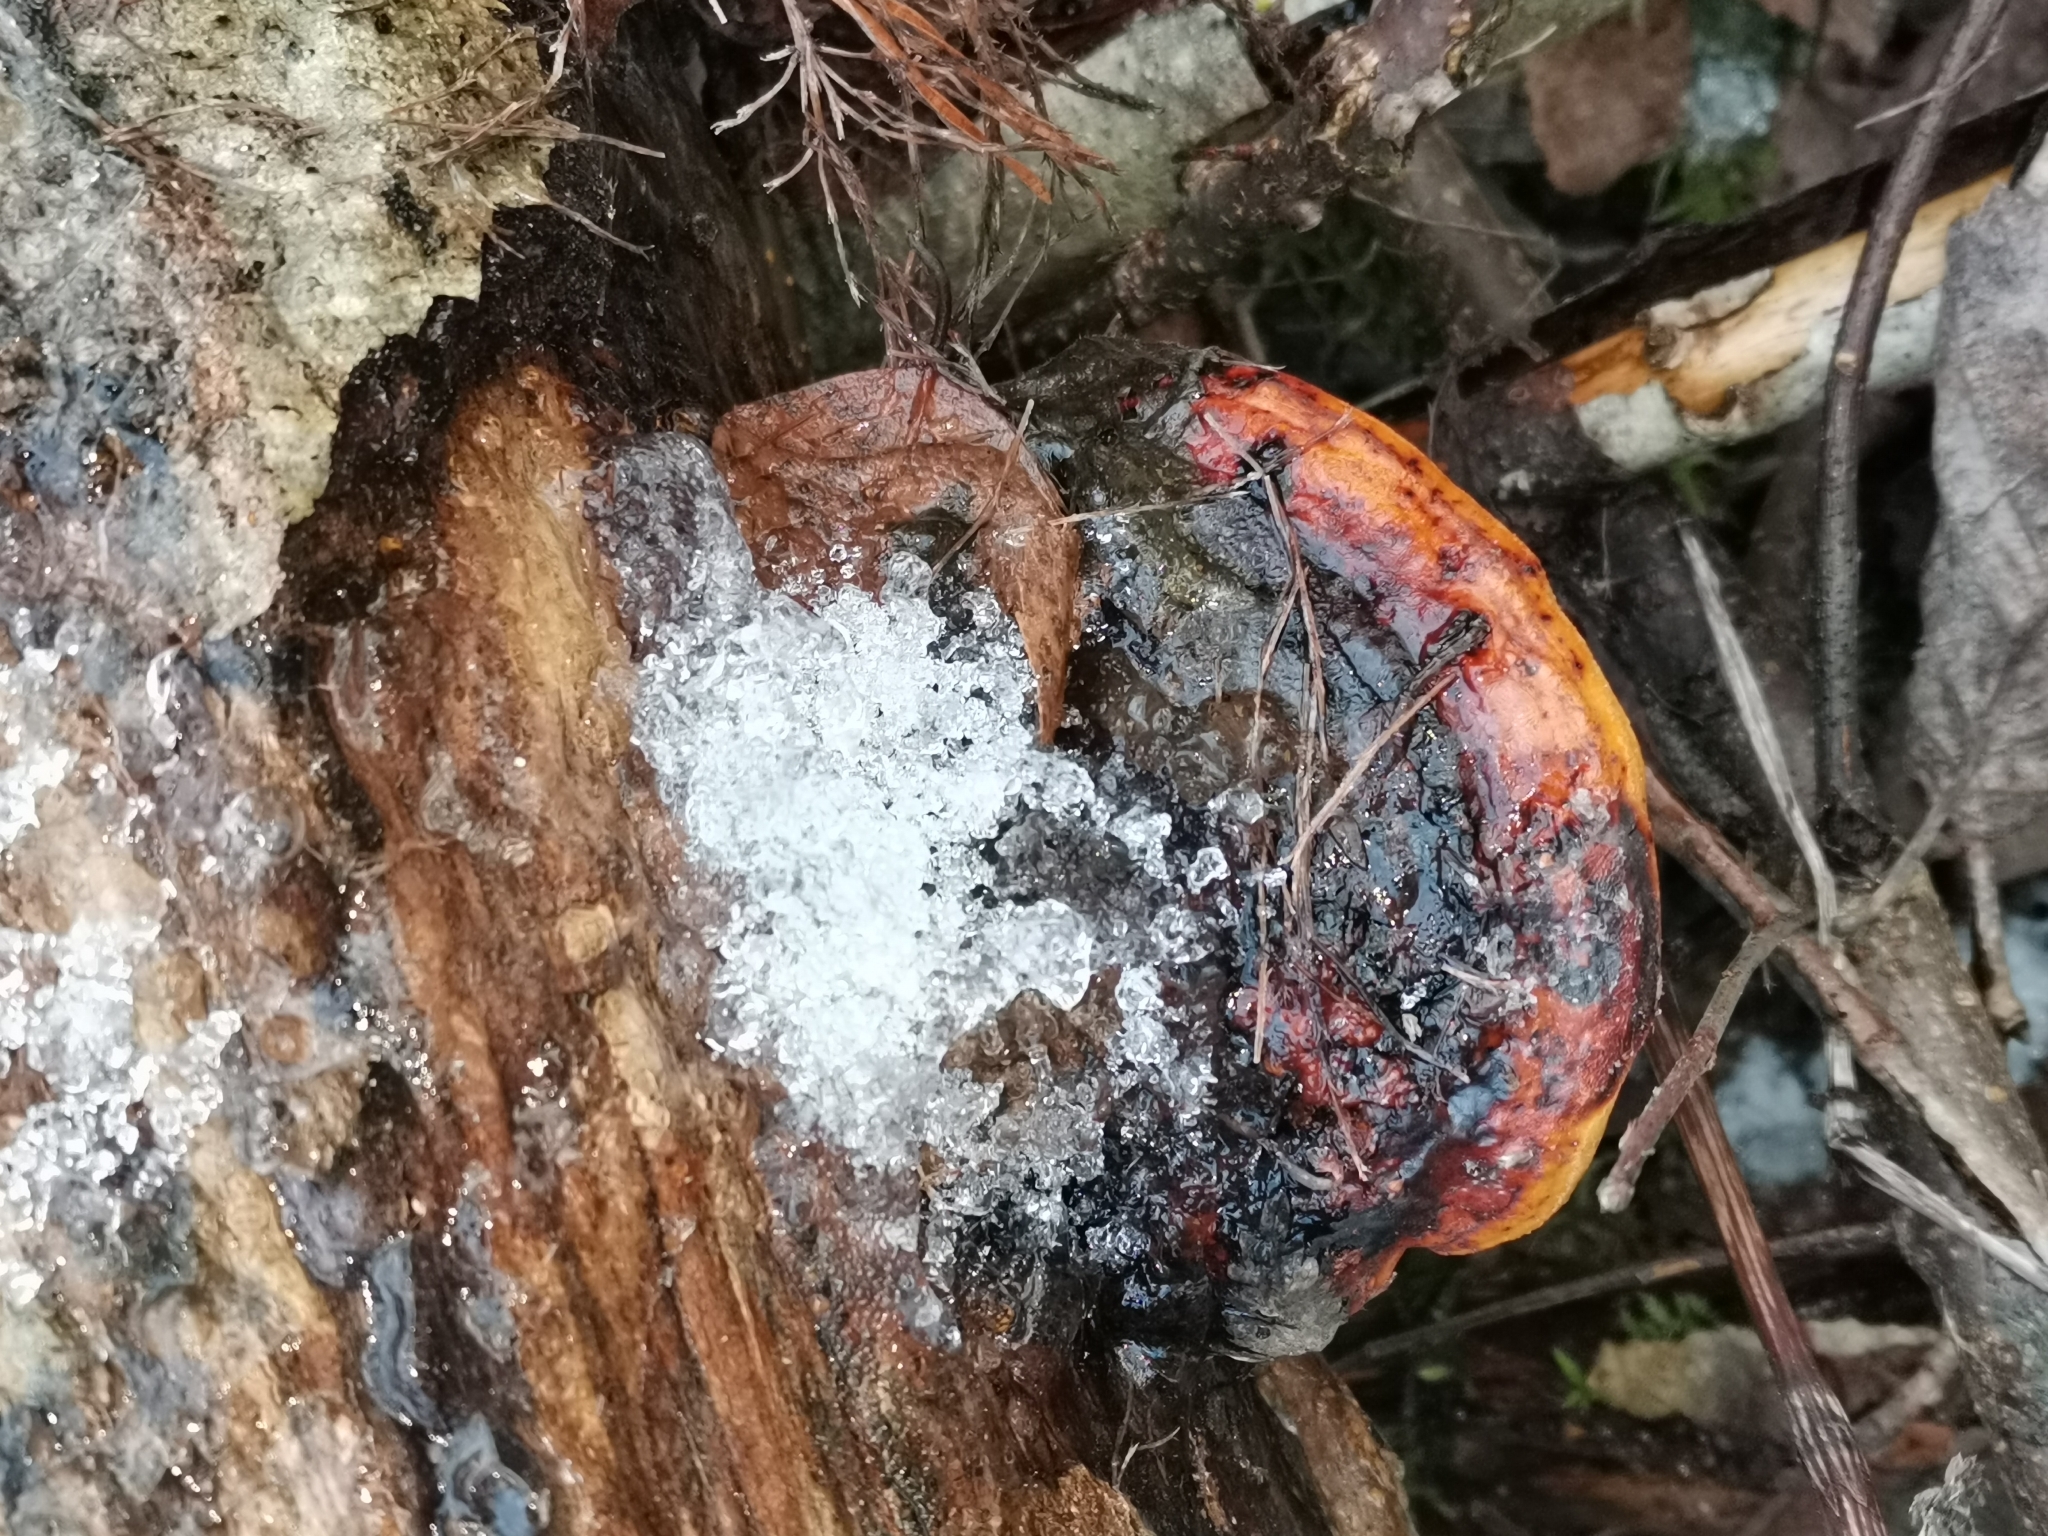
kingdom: Fungi
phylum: Basidiomycota
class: Agaricomycetes
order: Polyporales
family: Fomitopsidaceae
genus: Fomitopsis
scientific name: Fomitopsis pinicola
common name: Red-belted bracket
